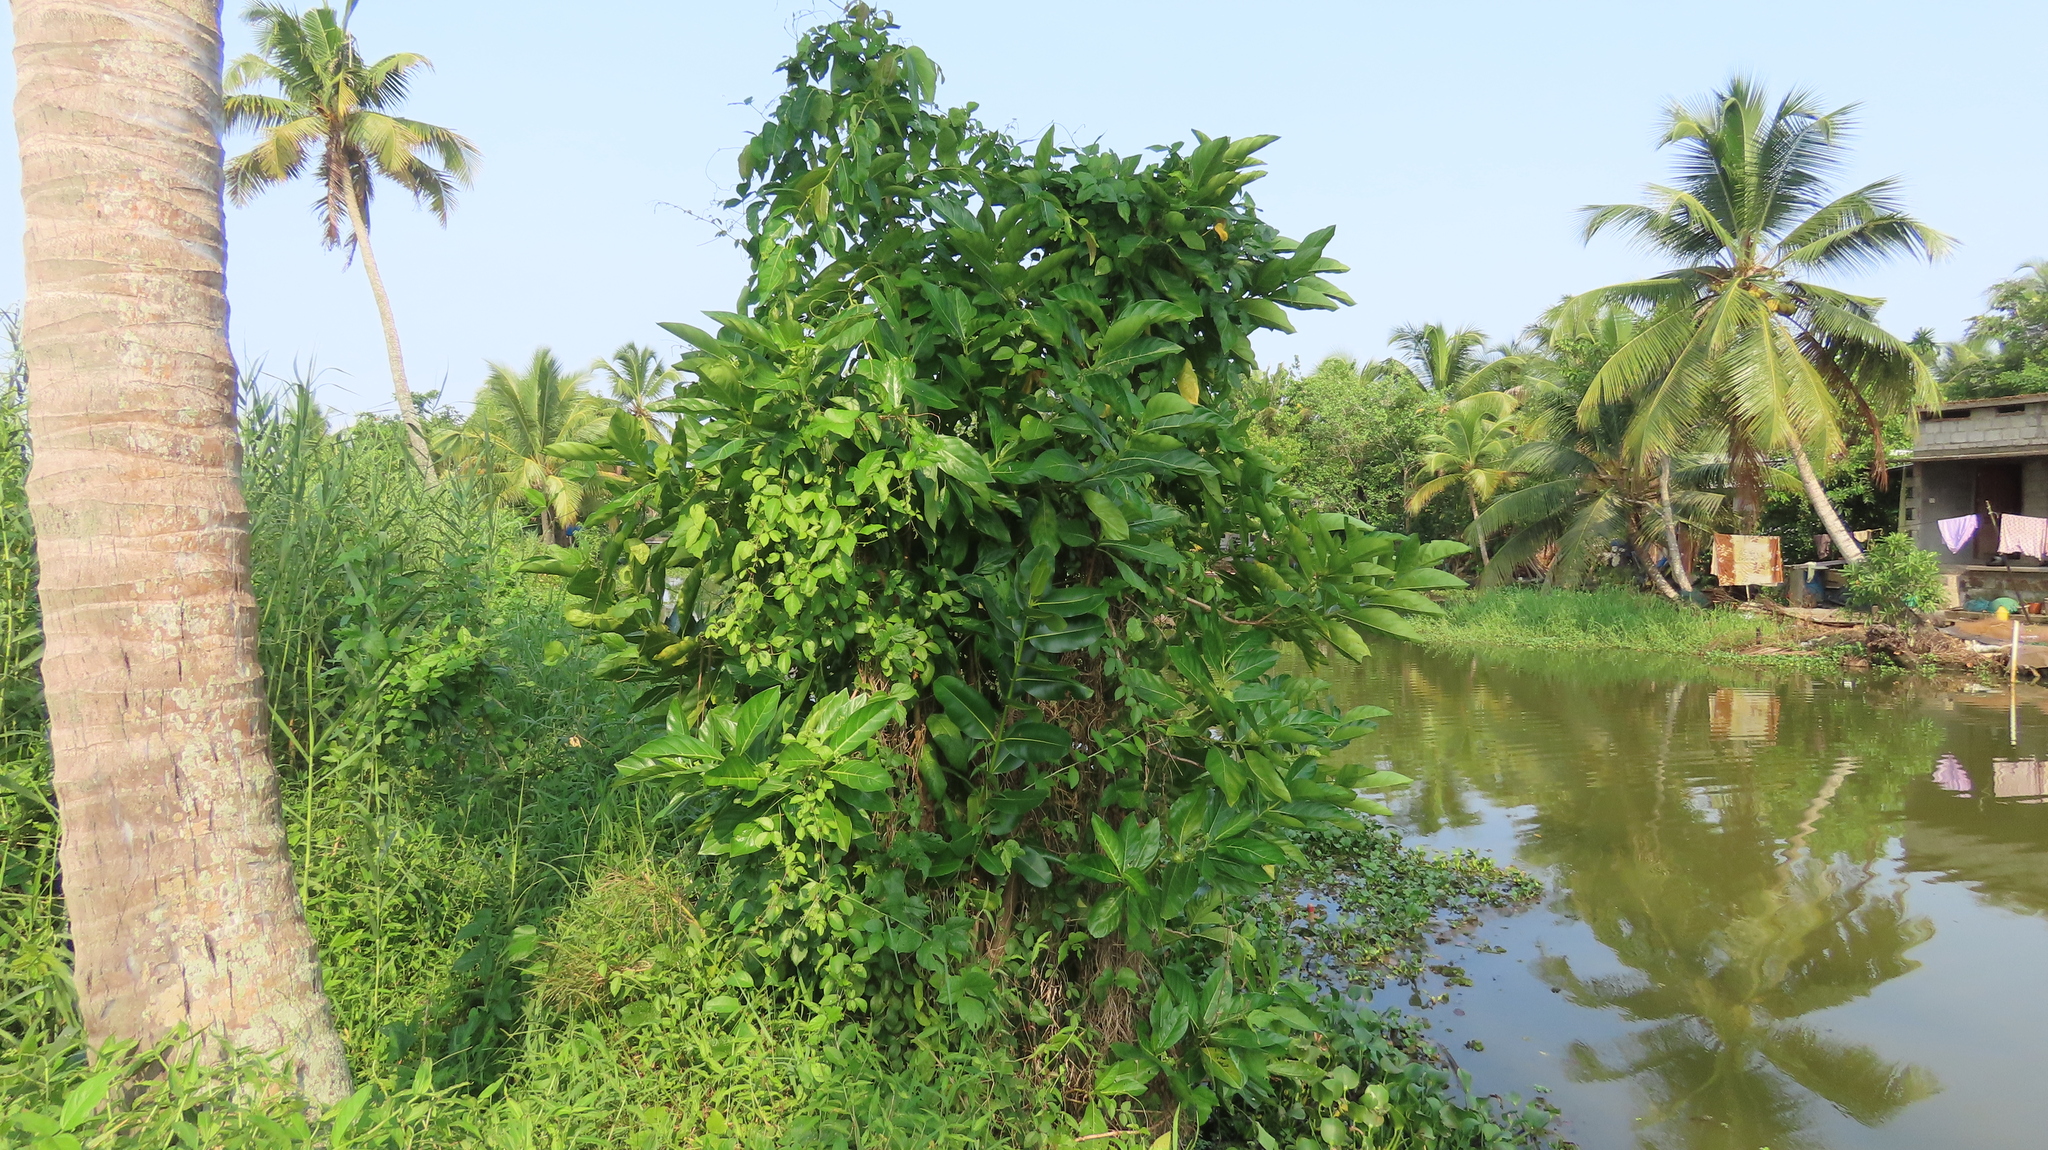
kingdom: Plantae
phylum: Tracheophyta
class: Magnoliopsida
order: Gentianales
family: Rubiaceae
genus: Morinda
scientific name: Morinda citrifolia
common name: Indian-mulberry
